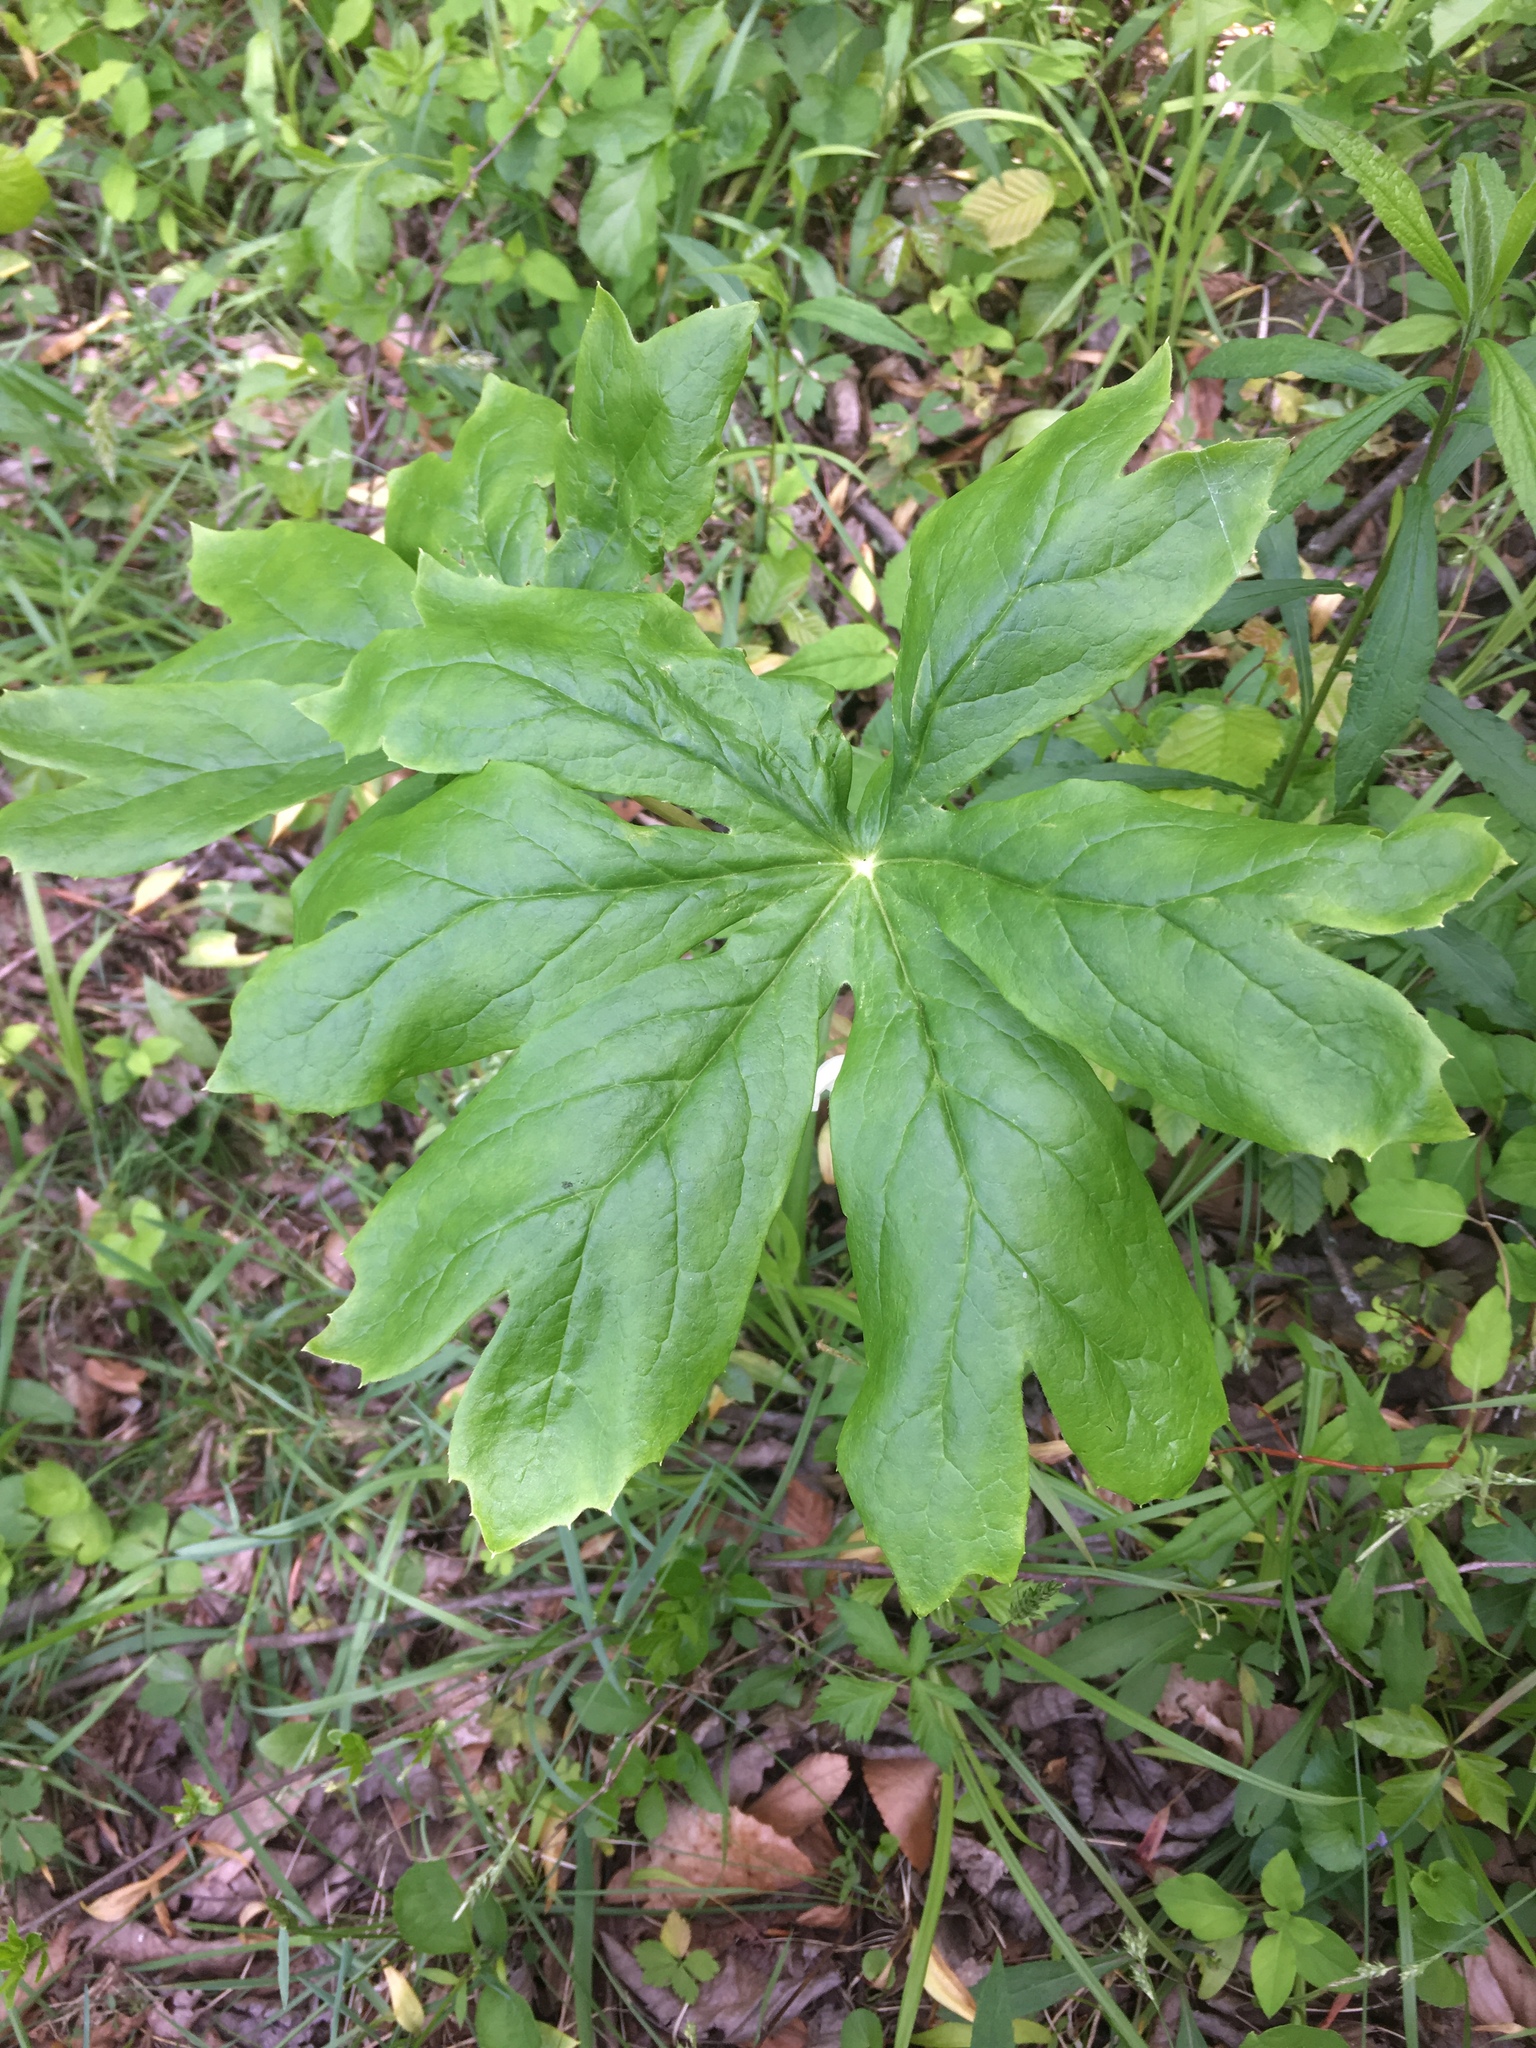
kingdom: Plantae
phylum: Tracheophyta
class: Magnoliopsida
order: Ranunculales
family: Berberidaceae
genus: Podophyllum
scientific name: Podophyllum peltatum
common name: Wild mandrake
